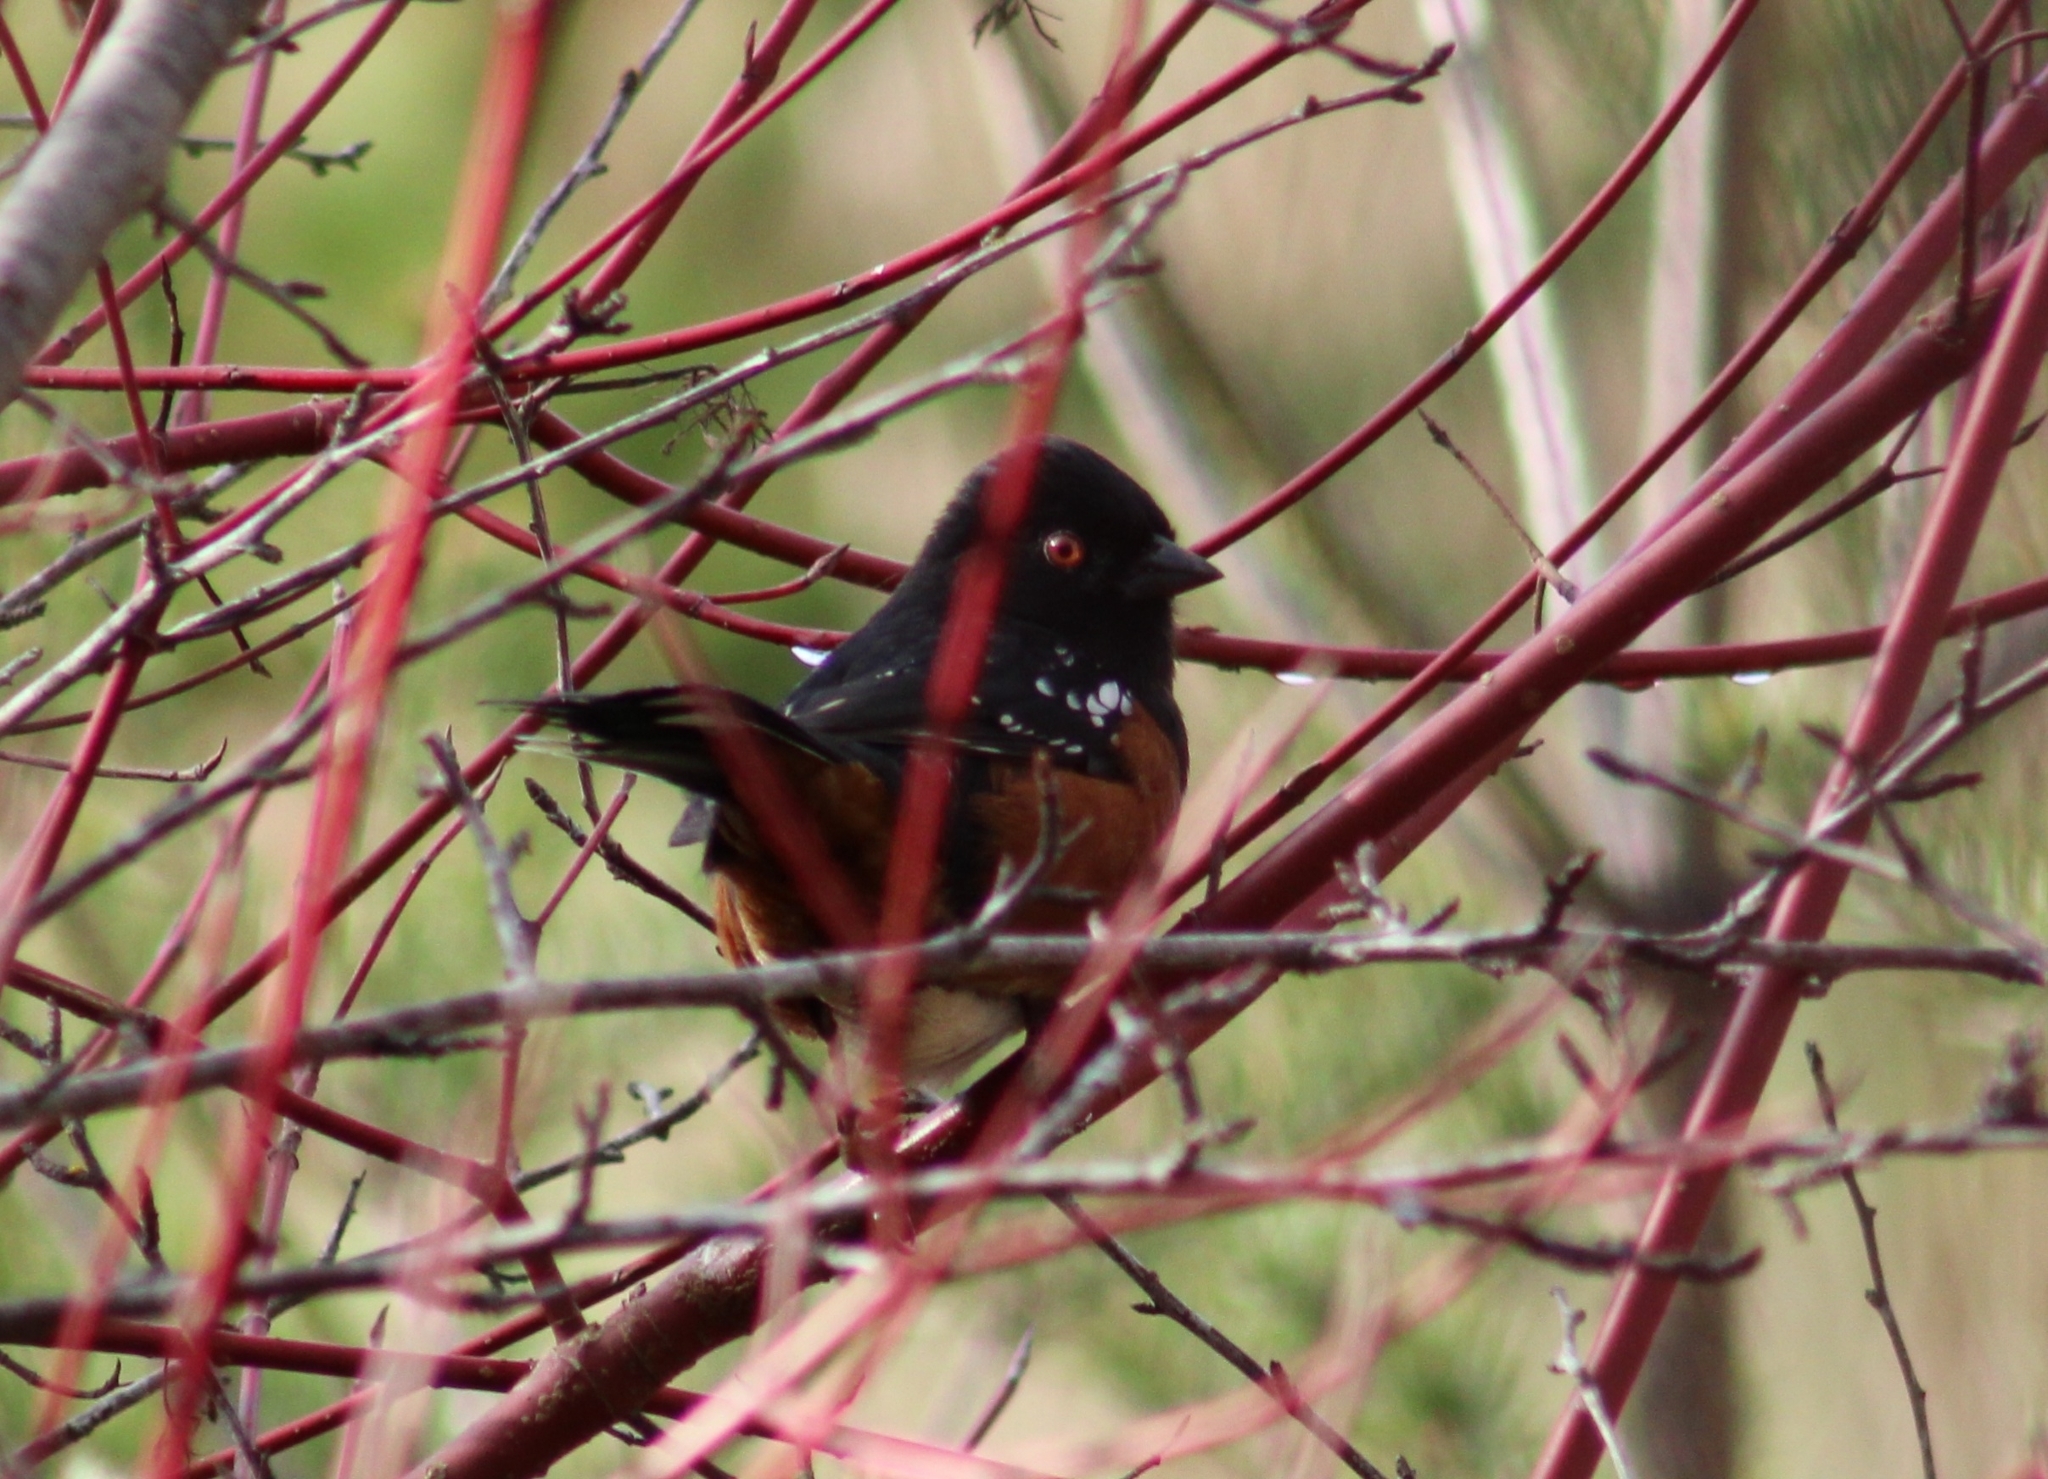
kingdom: Animalia
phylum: Chordata
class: Aves
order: Passeriformes
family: Passerellidae
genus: Pipilo
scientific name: Pipilo maculatus
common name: Spotted towhee
